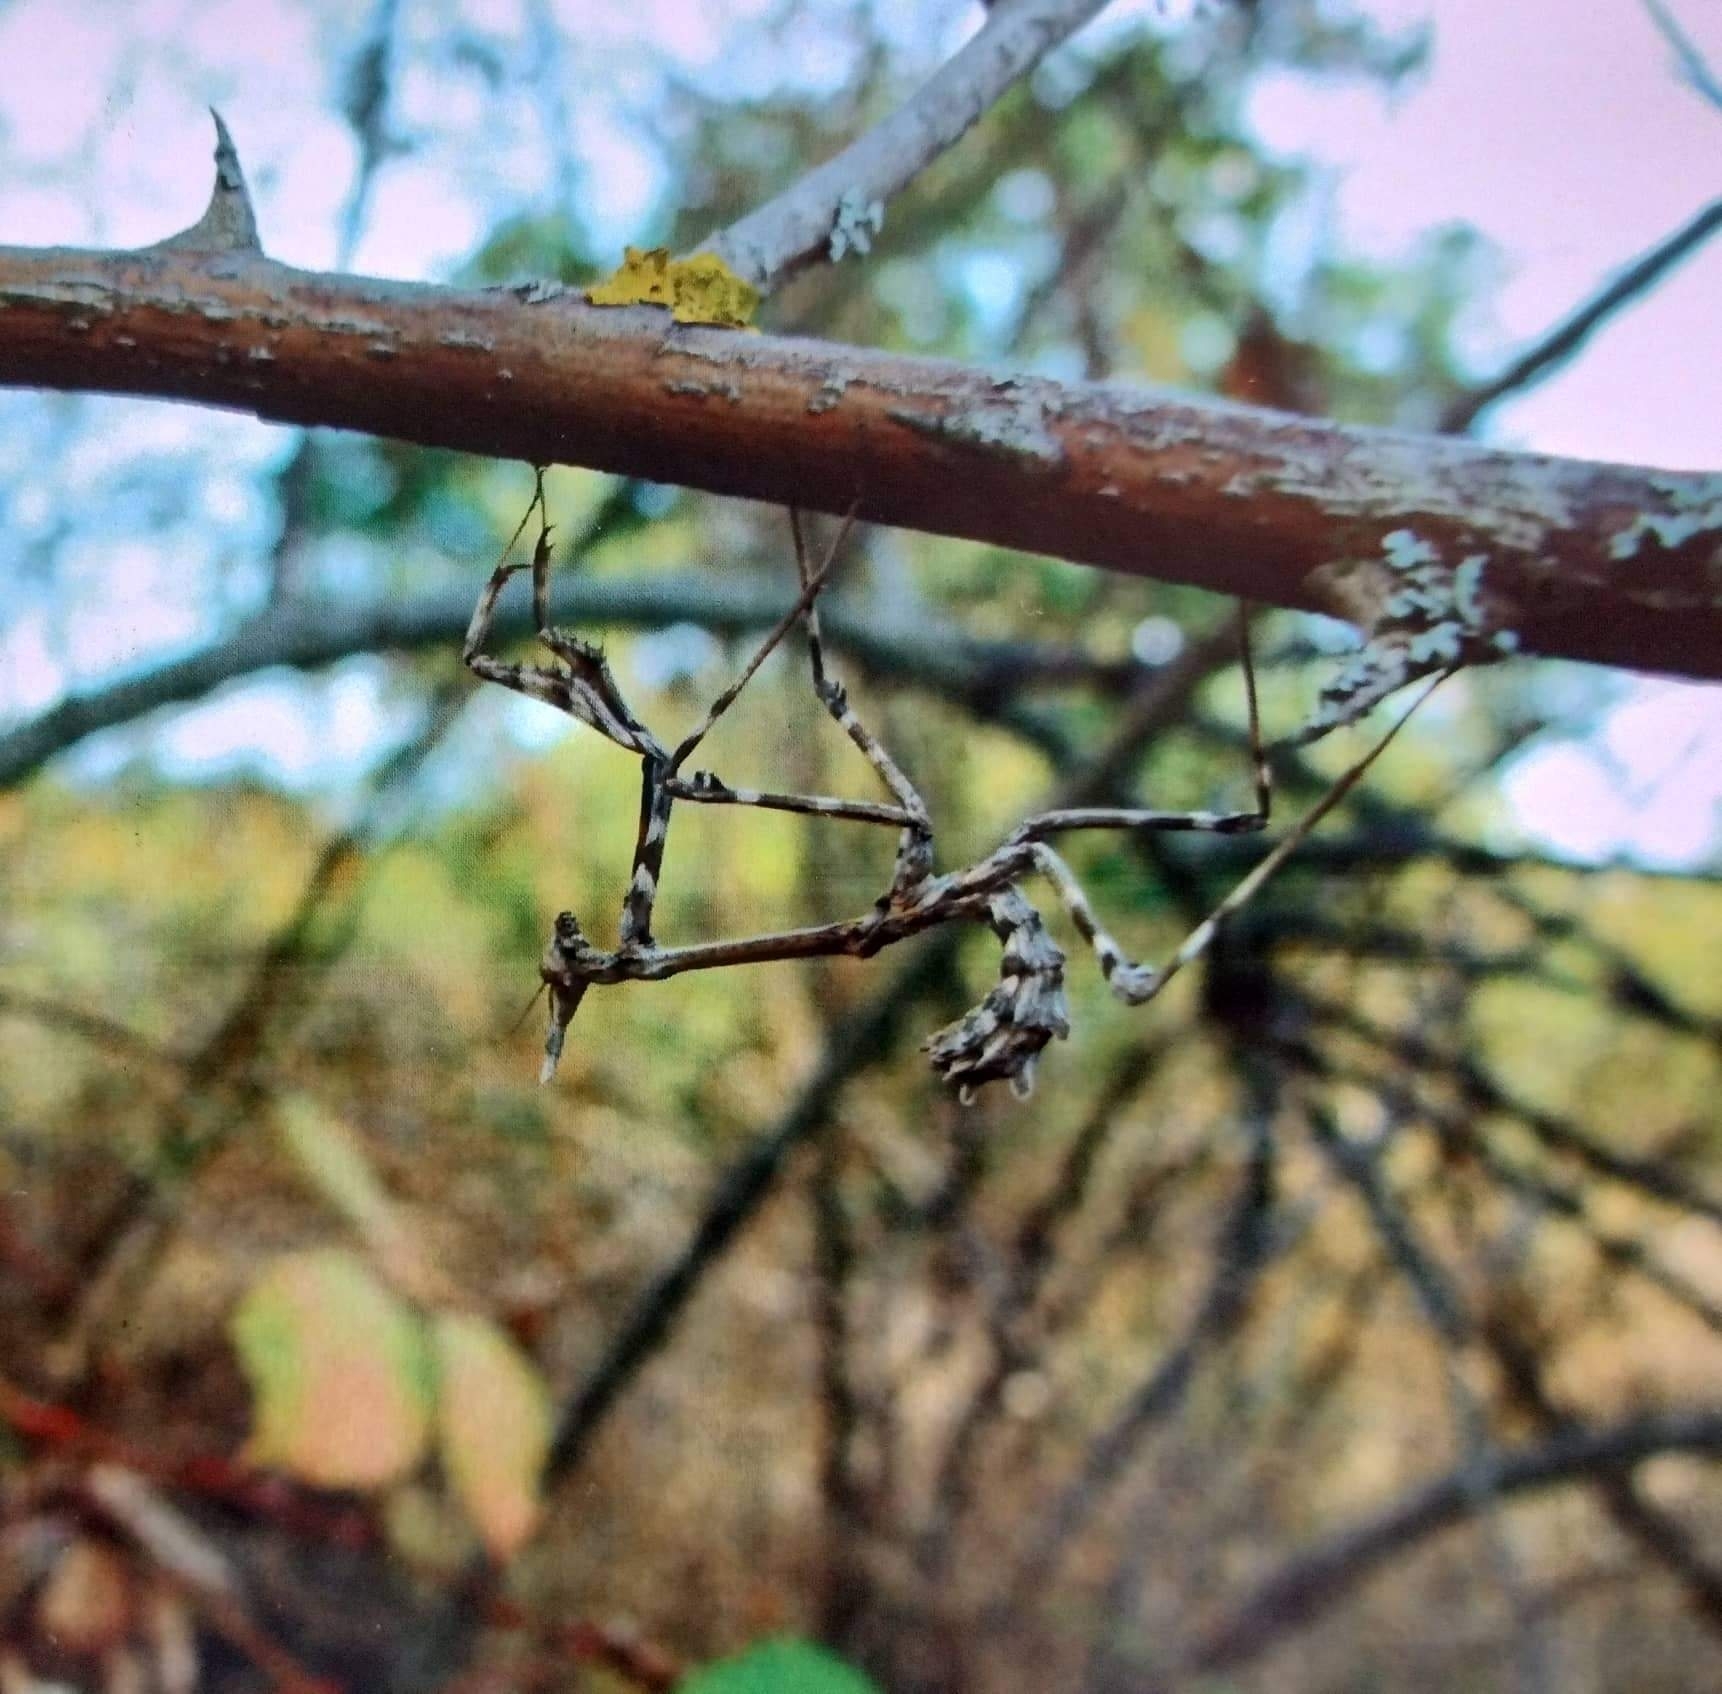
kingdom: Animalia
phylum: Arthropoda
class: Insecta
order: Mantodea
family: Empusidae
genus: Empusa
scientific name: Empusa pennata
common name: Conehead mantis
